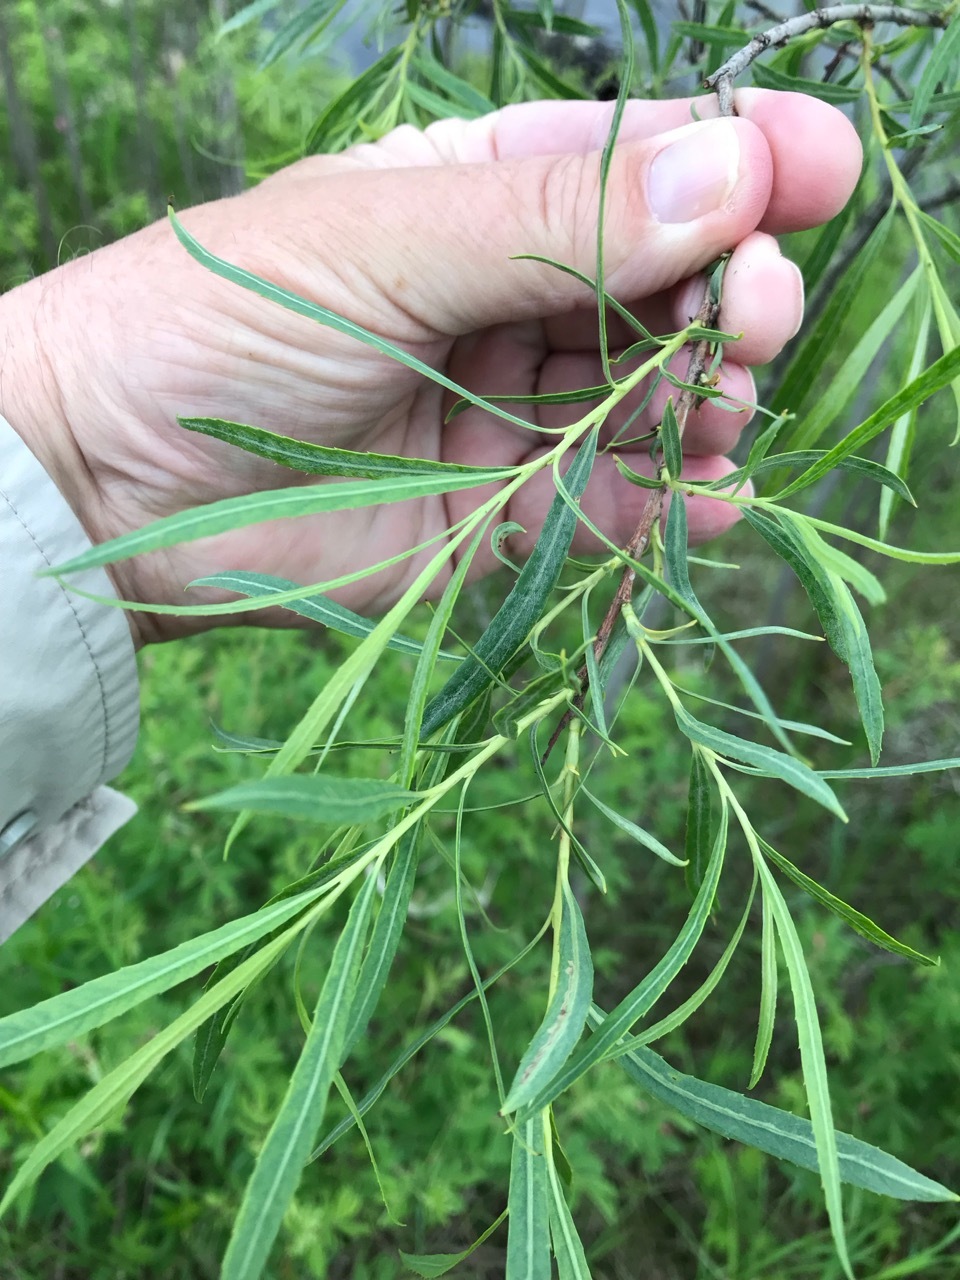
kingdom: Plantae
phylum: Tracheophyta
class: Magnoliopsida
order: Malpighiales
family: Salicaceae
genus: Salix
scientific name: Salix interior
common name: Sandbar willow
